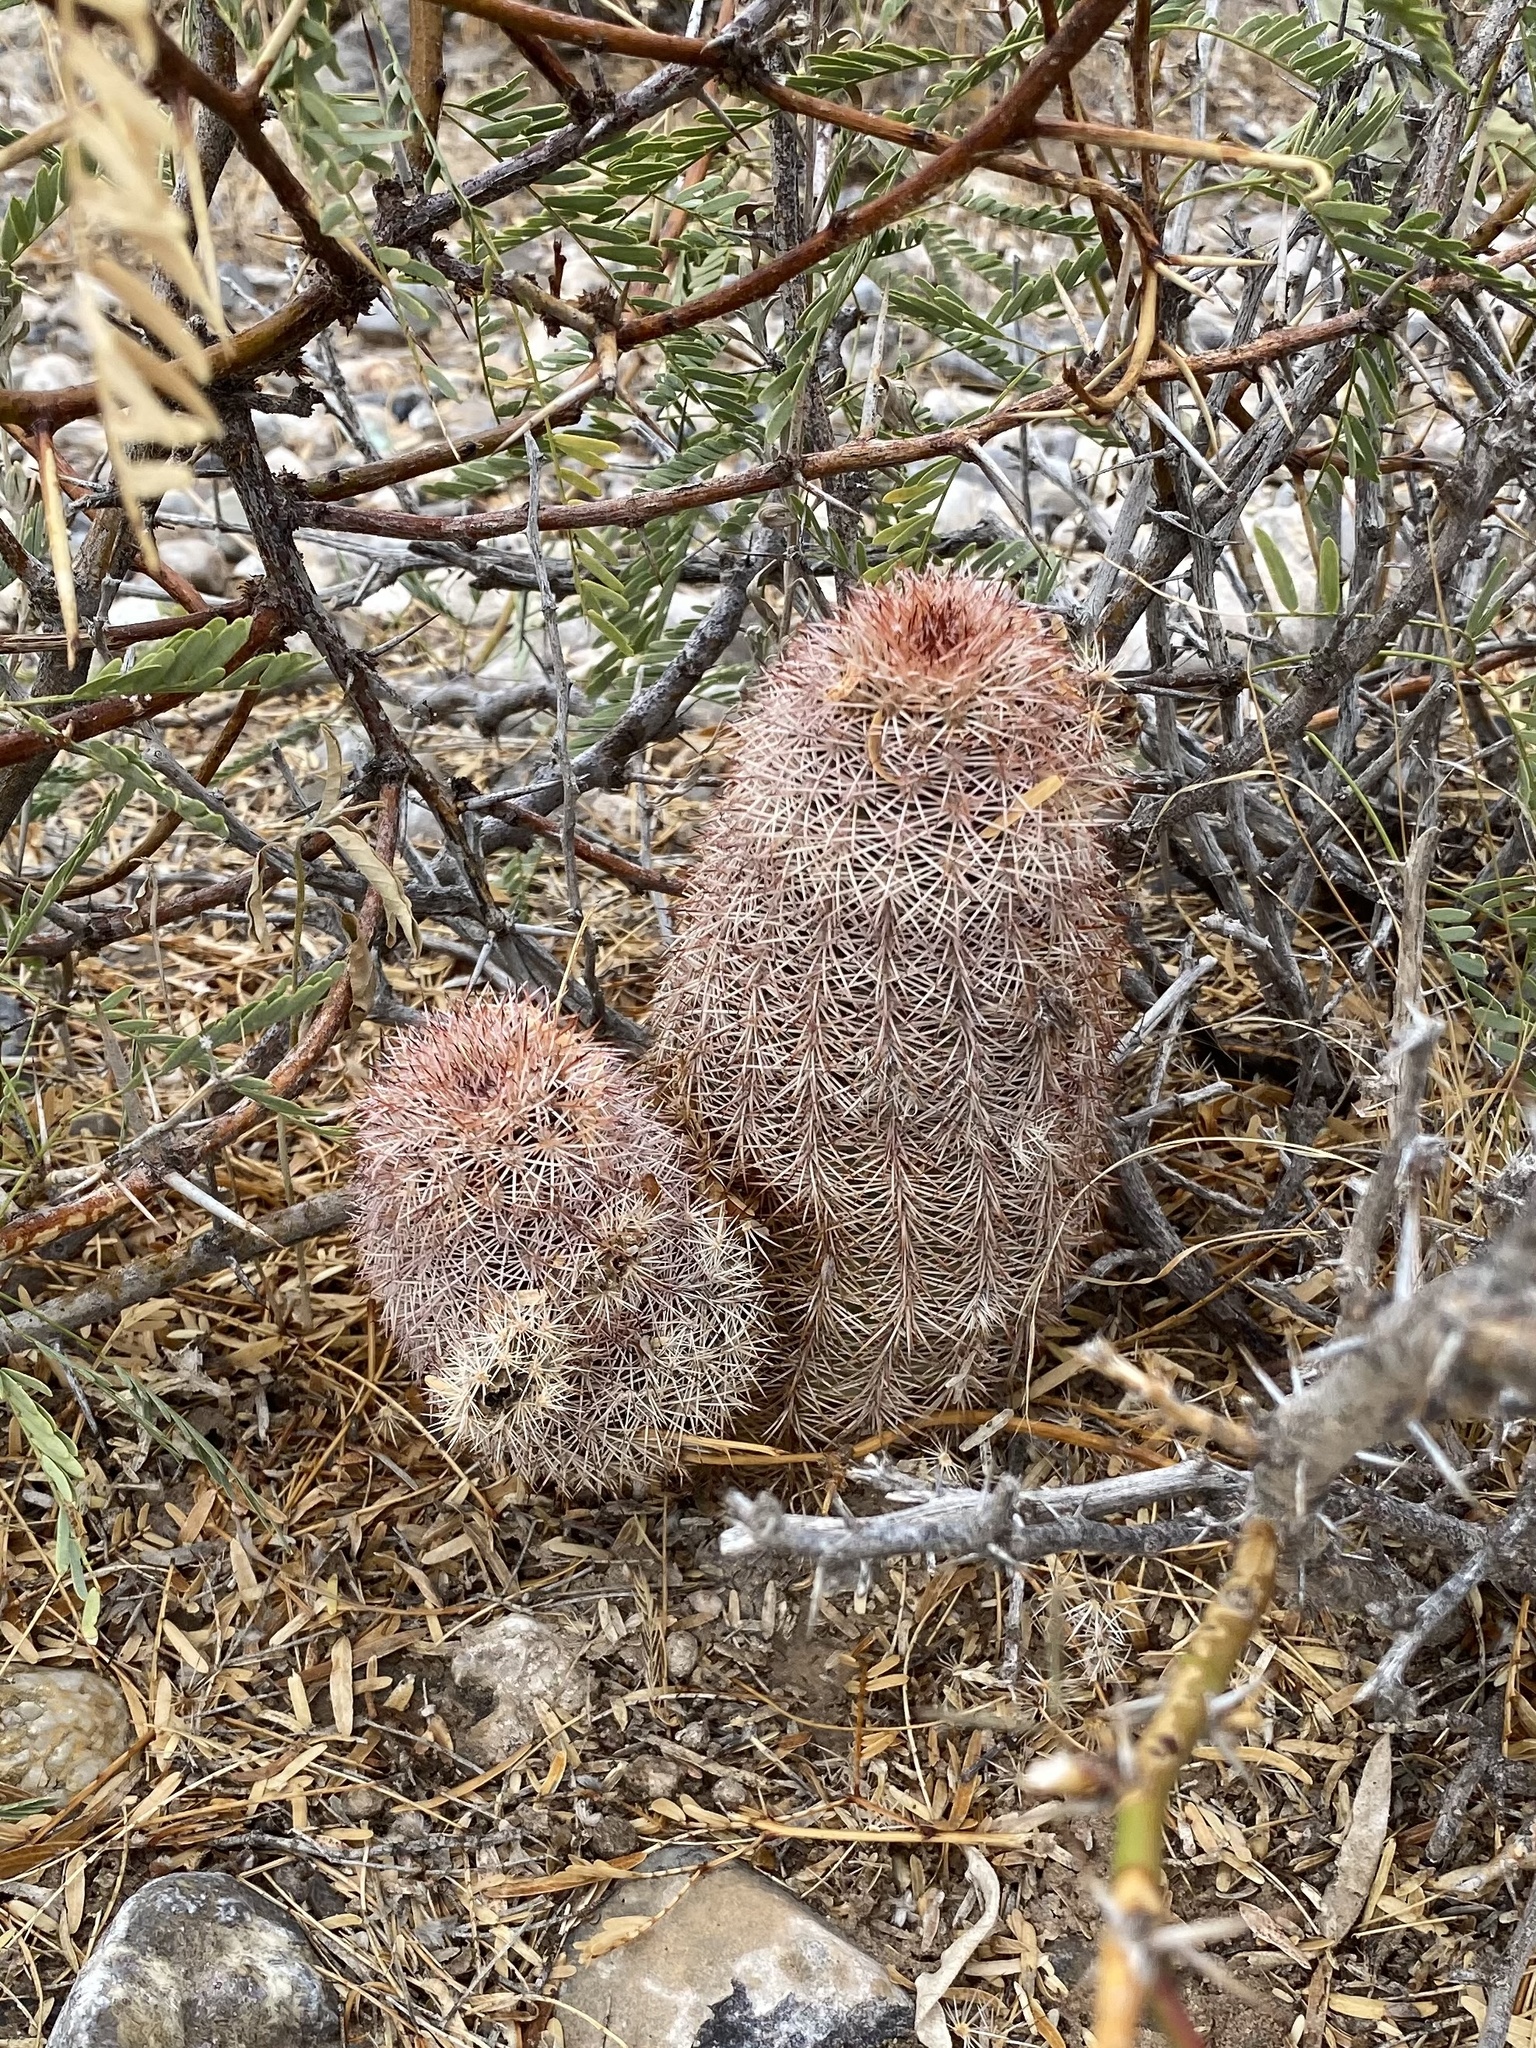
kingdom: Plantae
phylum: Tracheophyta
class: Magnoliopsida
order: Caryophyllales
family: Cactaceae
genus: Echinocereus
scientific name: Echinocereus dasyacanthus
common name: Spiny hedgehog cactus
